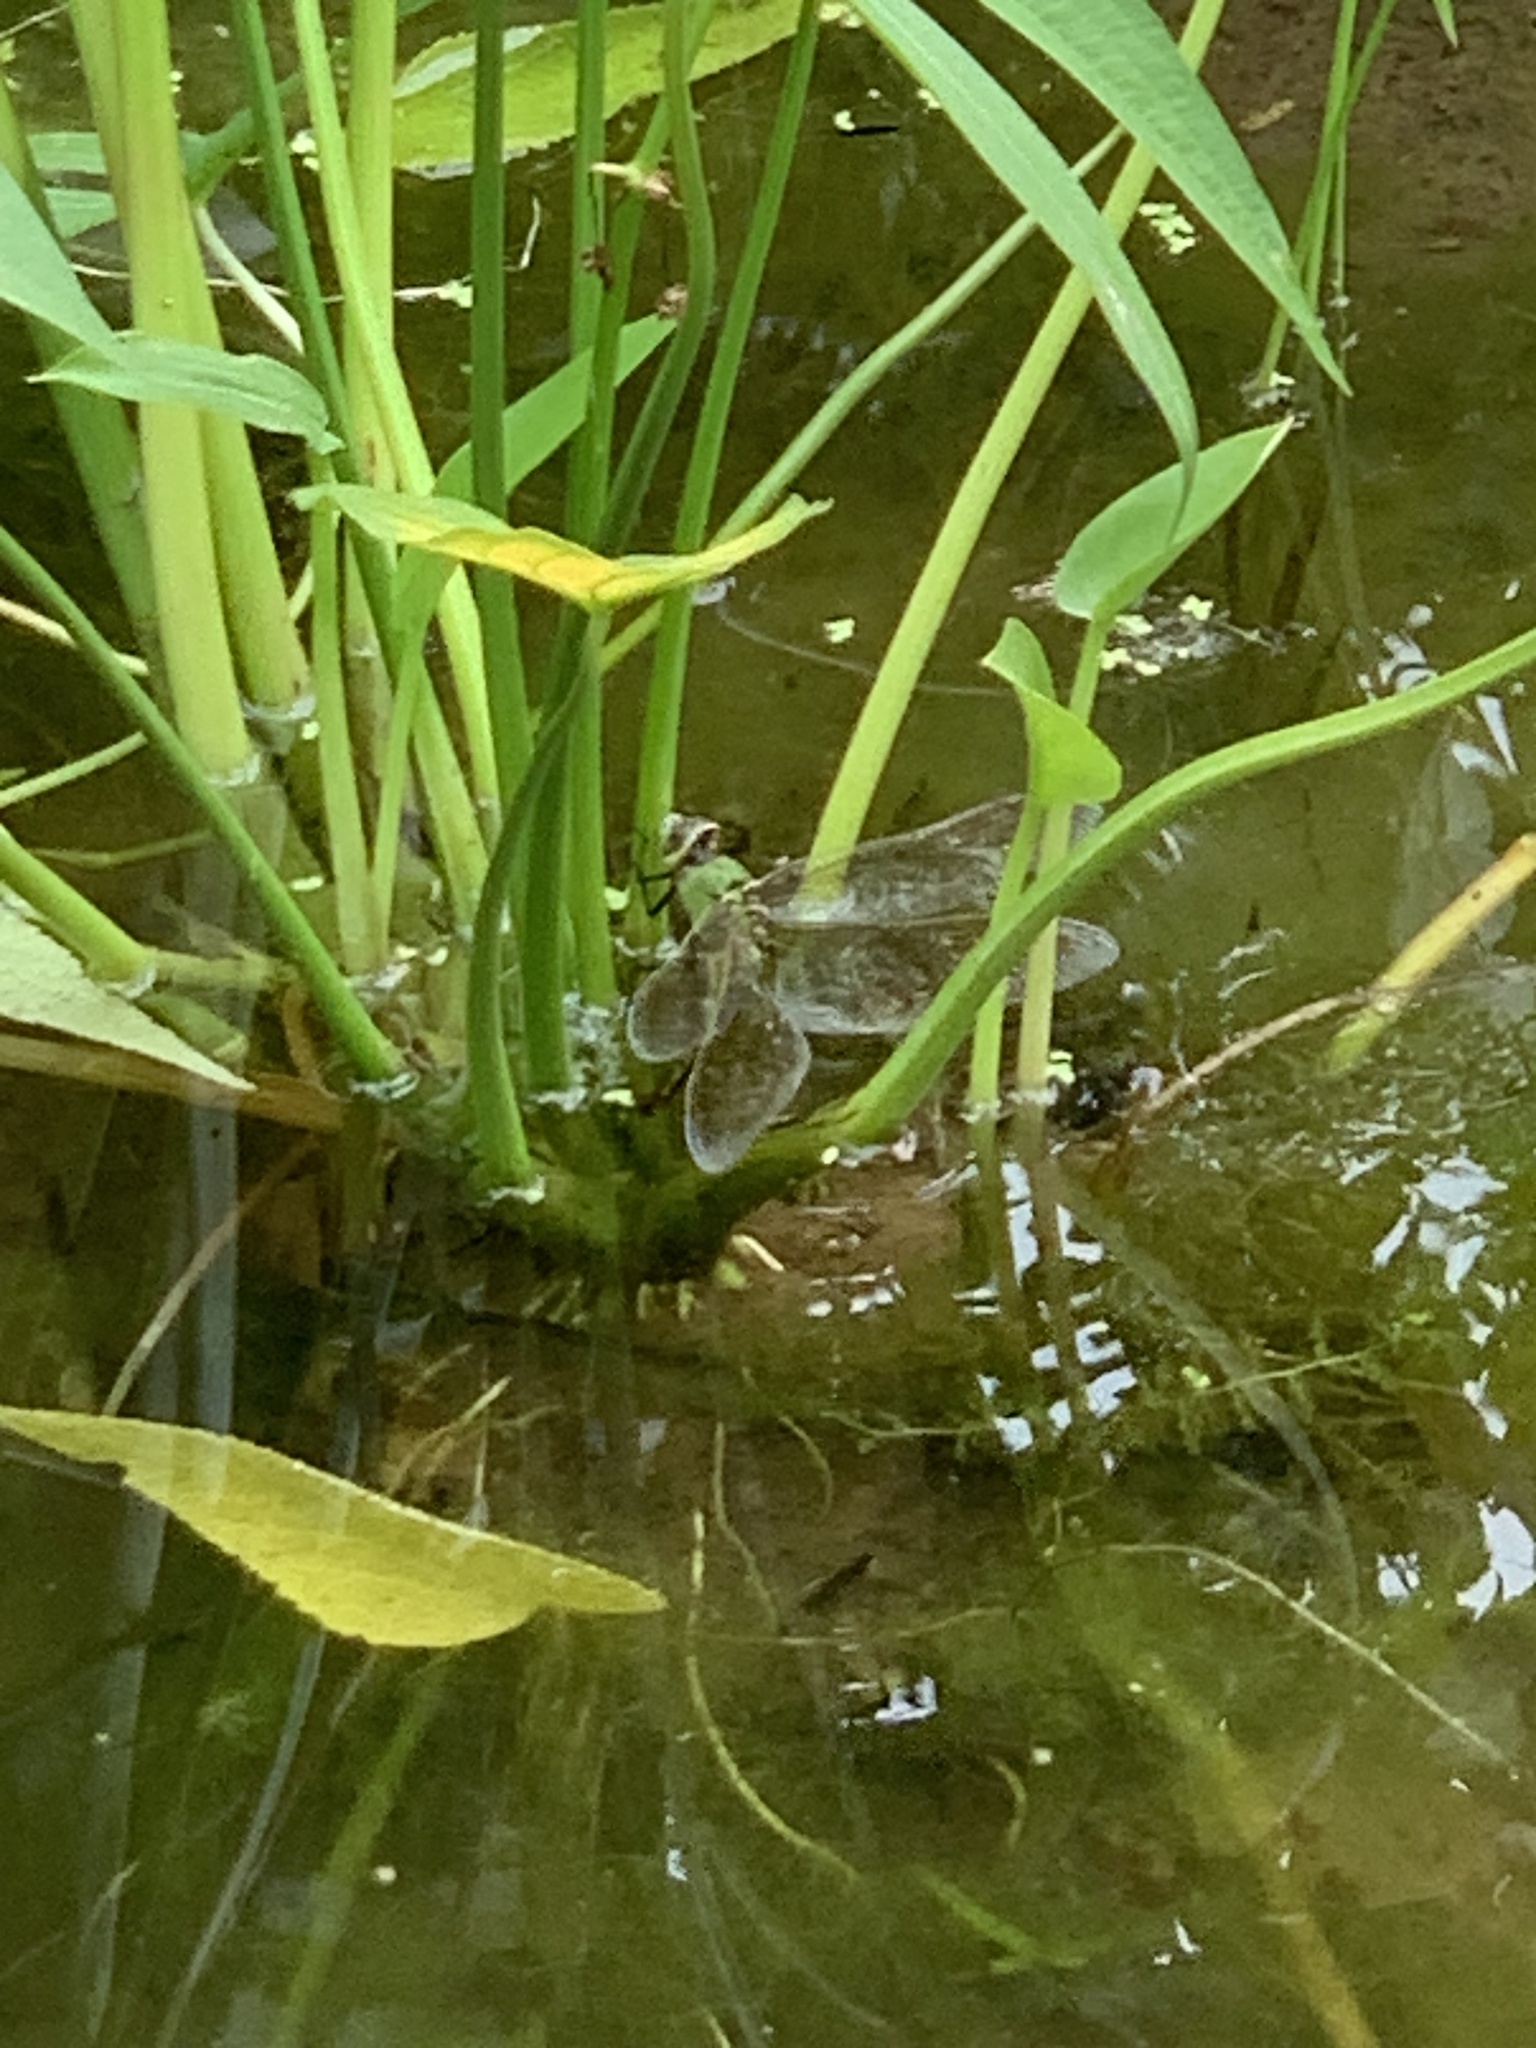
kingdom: Animalia
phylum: Arthropoda
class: Insecta
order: Odonata
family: Aeshnidae
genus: Anax
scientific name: Anax junius
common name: Common green darner
